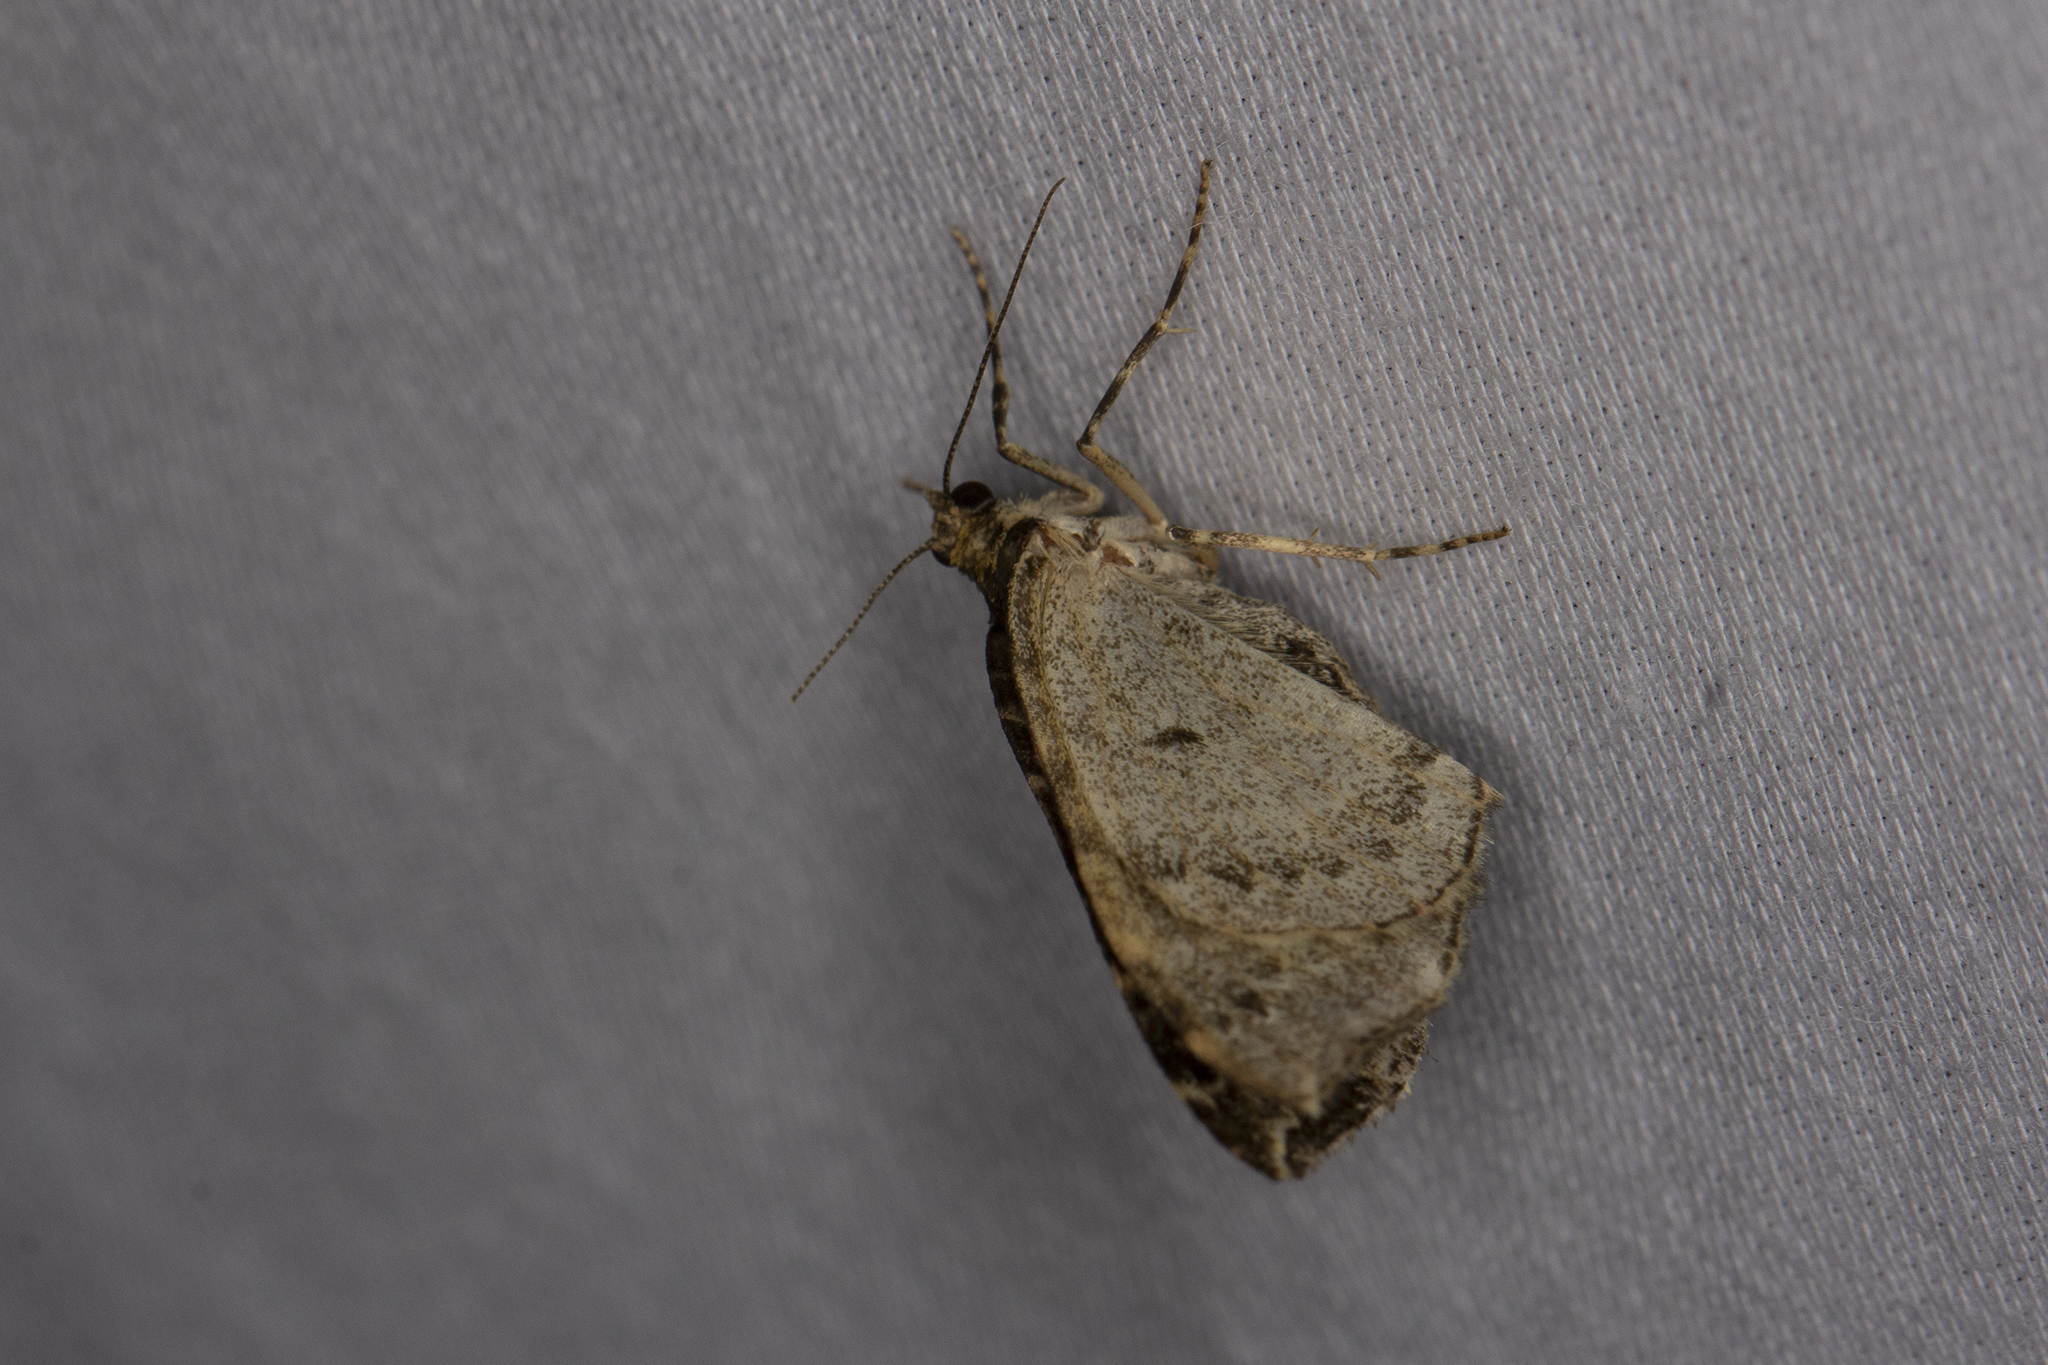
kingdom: Animalia
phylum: Arthropoda
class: Insecta
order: Lepidoptera
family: Geometridae
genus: Ecliptopera
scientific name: Ecliptopera silaceata
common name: Small phoenix
